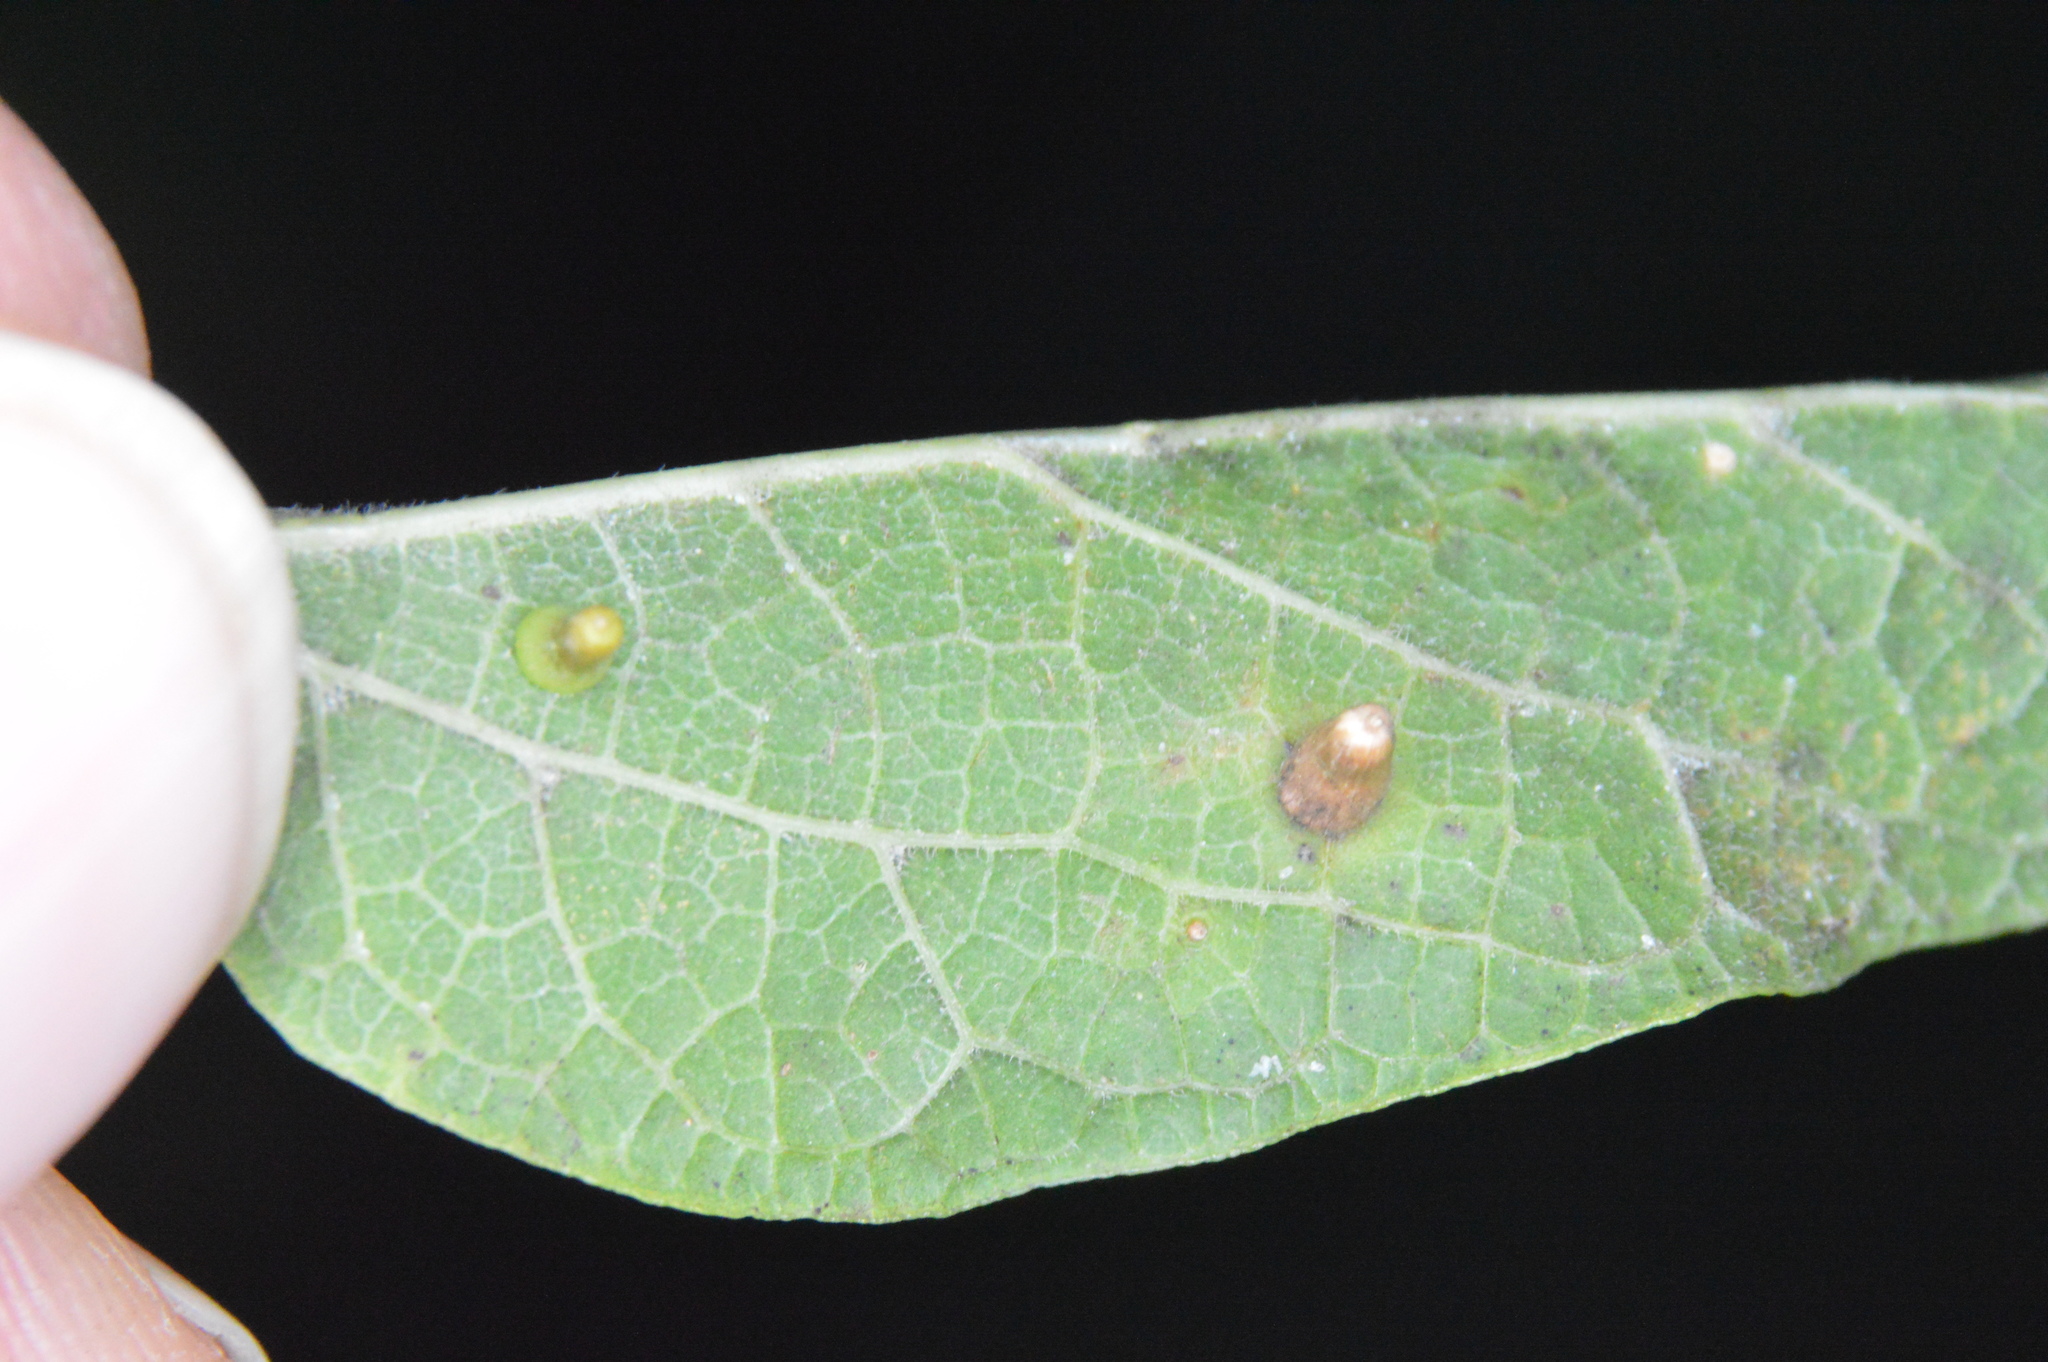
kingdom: Animalia
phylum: Arthropoda
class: Insecta
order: Diptera
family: Cecidomyiidae
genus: Celticecis
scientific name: Celticecis aciculata
